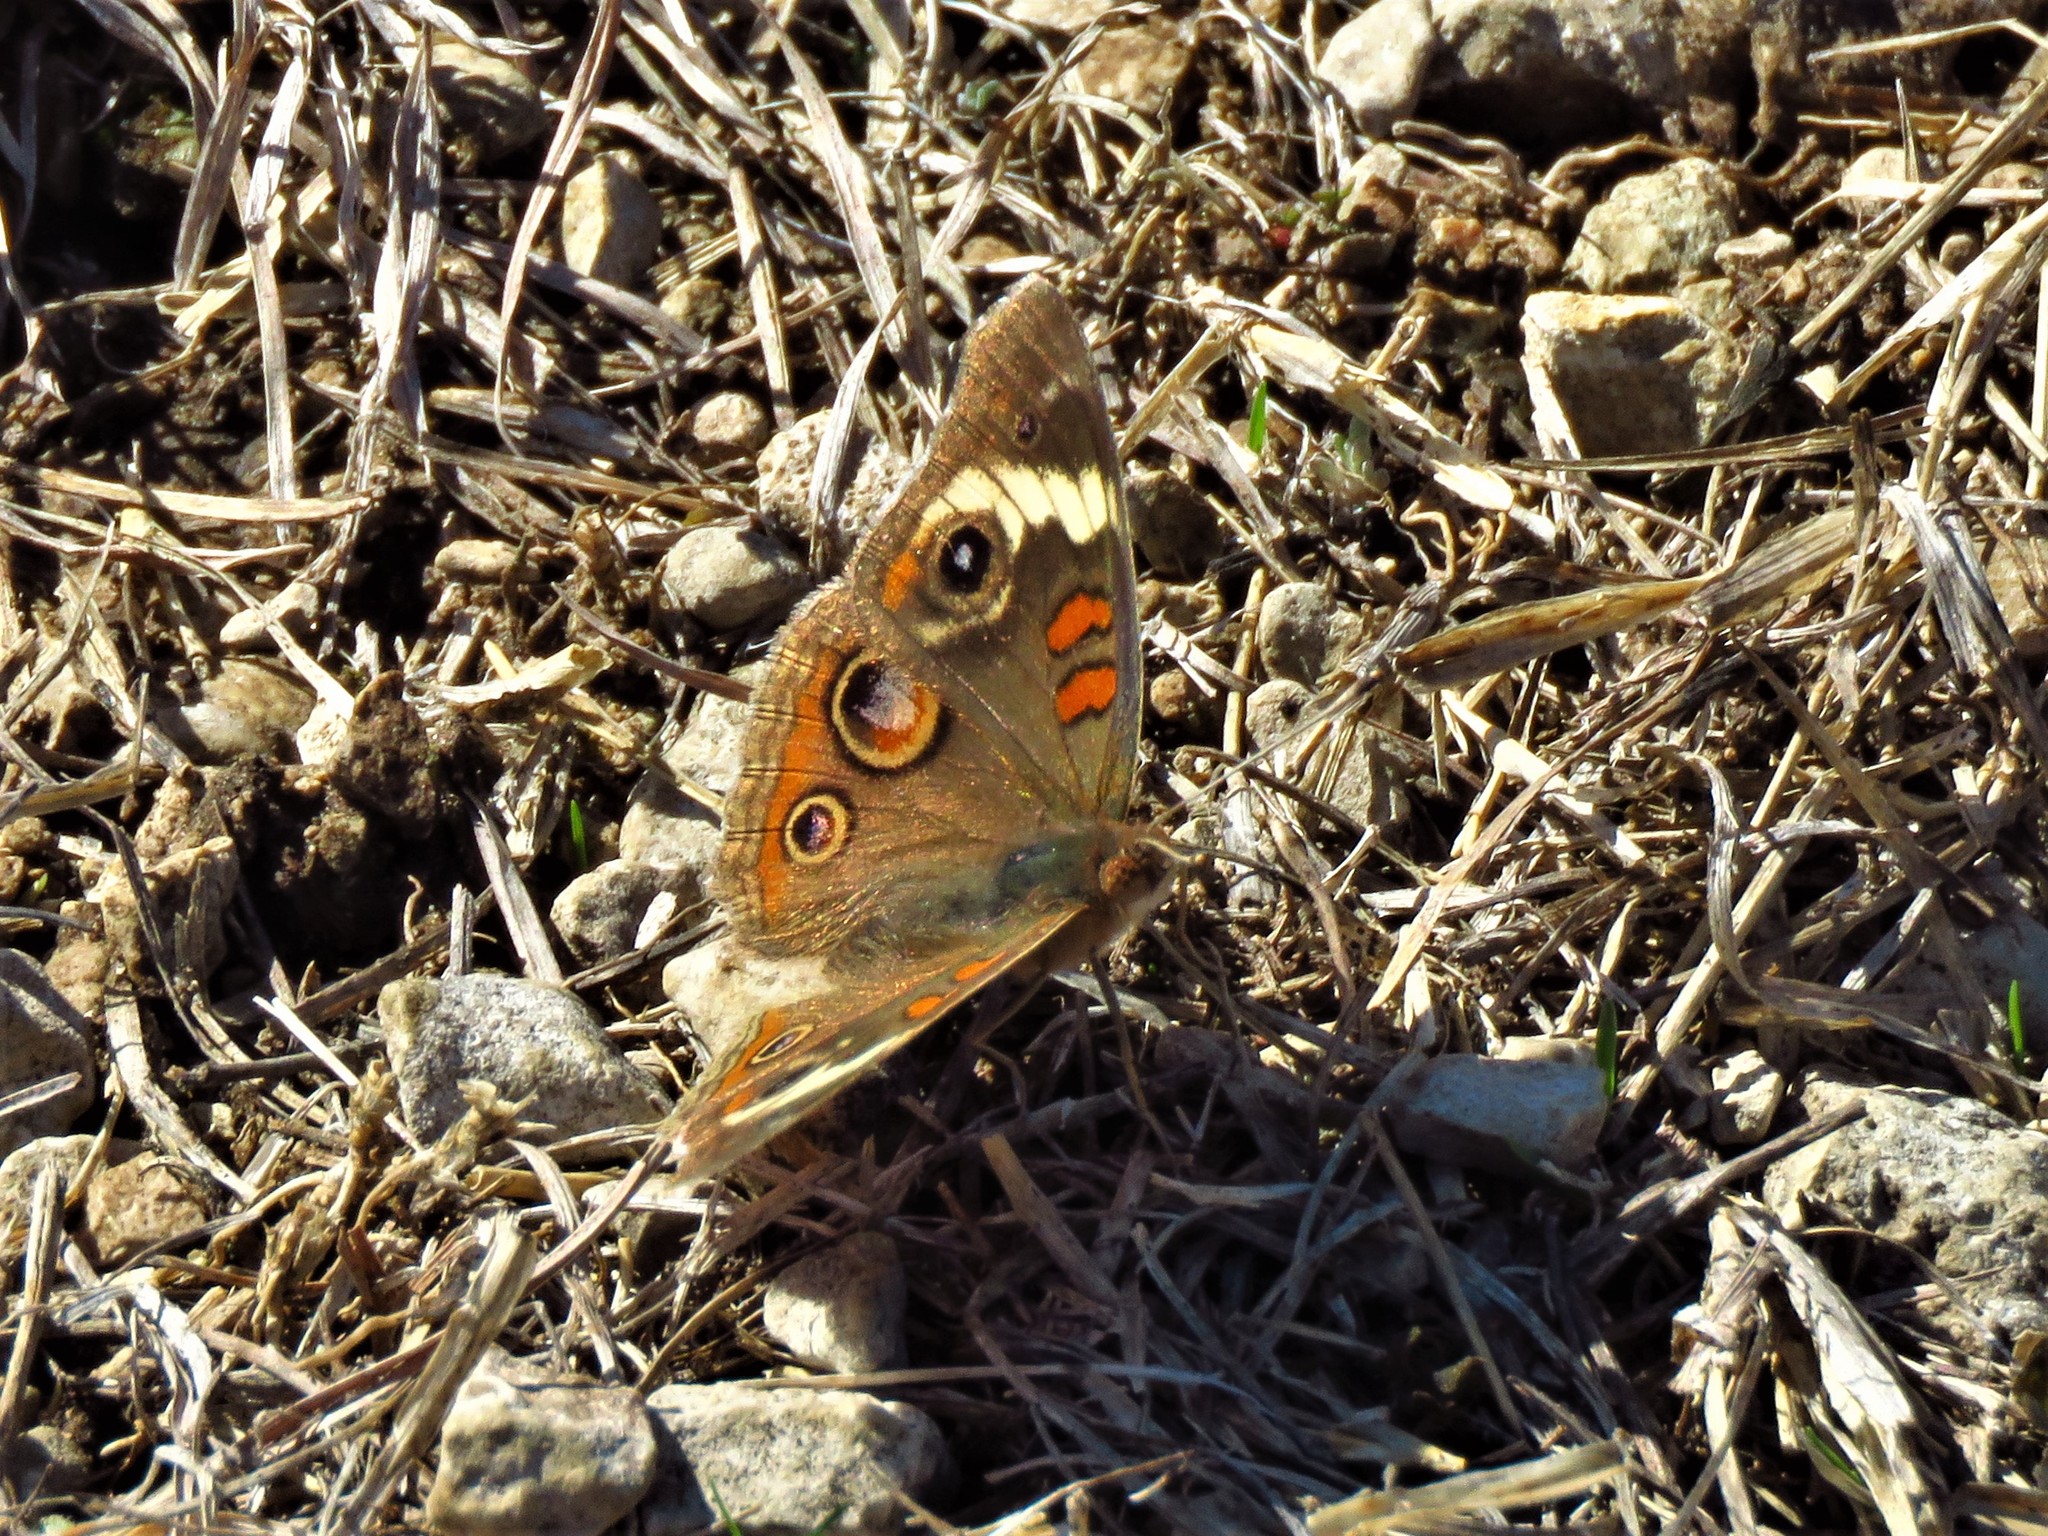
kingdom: Animalia
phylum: Arthropoda
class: Insecta
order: Lepidoptera
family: Nymphalidae
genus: Junonia
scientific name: Junonia coenia
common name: Common buckeye
